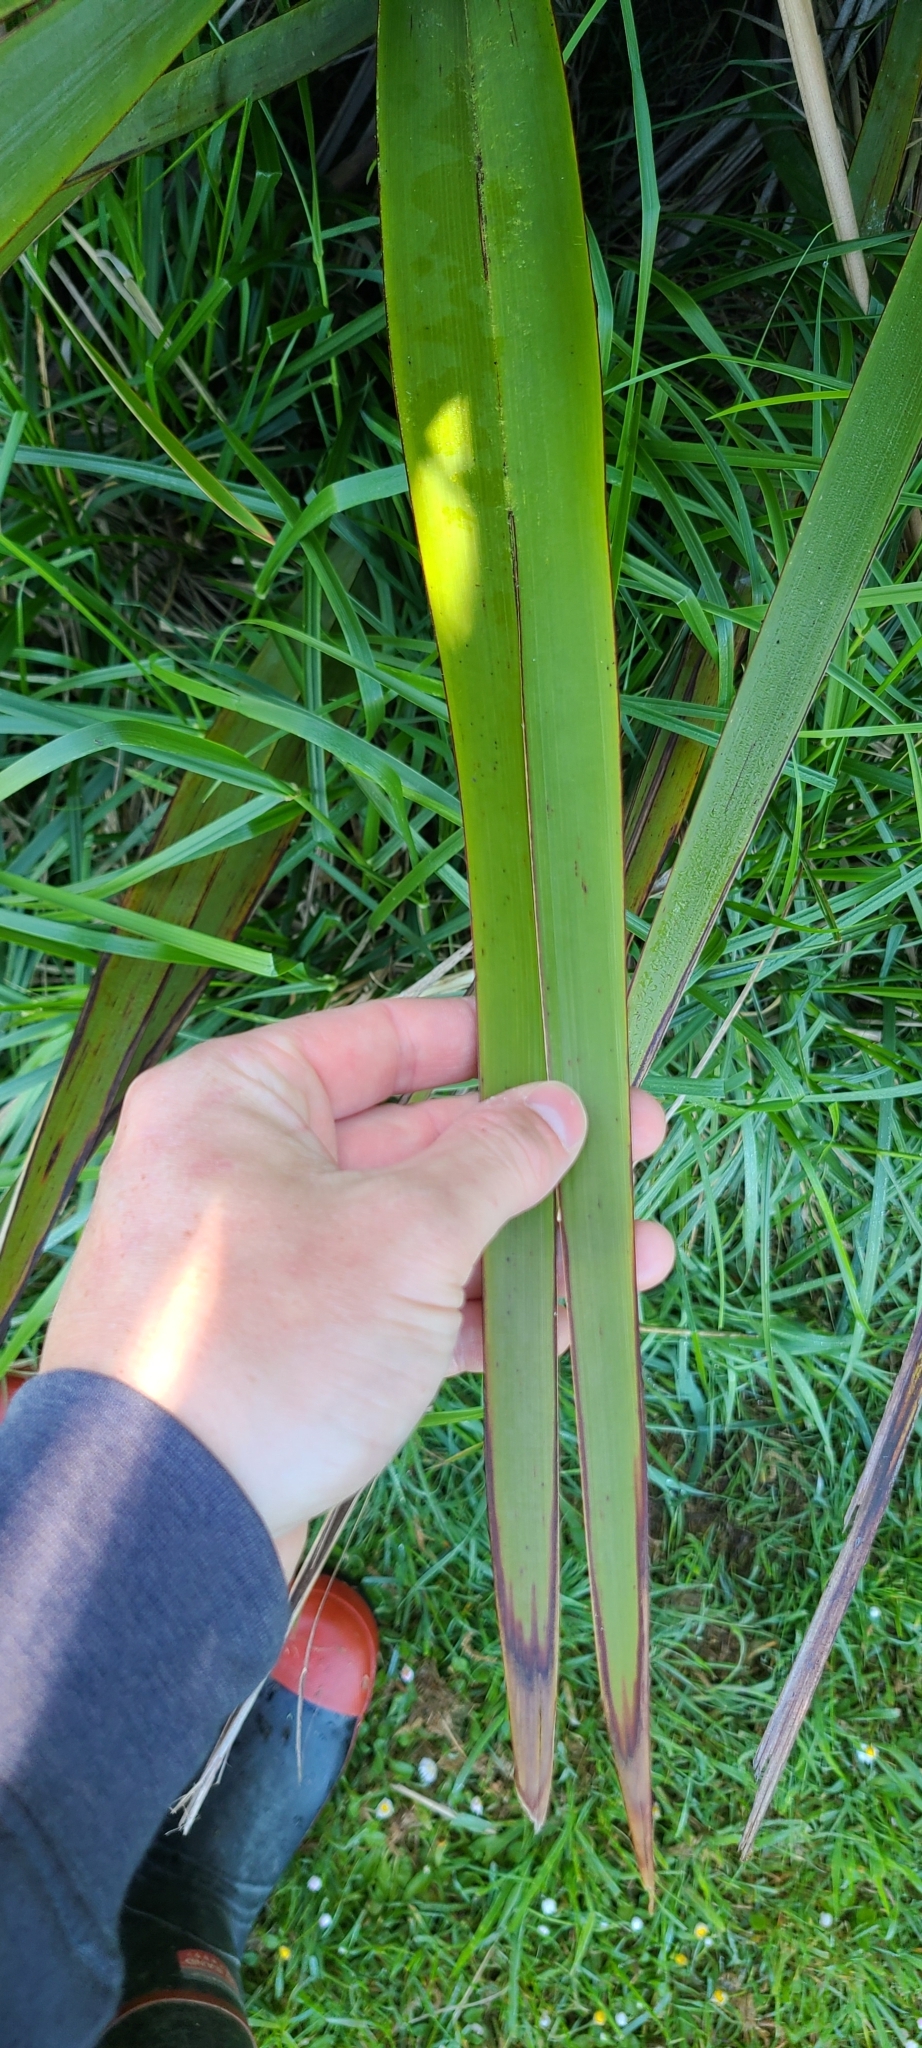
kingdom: Plantae
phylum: Tracheophyta
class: Liliopsida
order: Asparagales
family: Asphodelaceae
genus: Phormium
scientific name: Phormium tenax
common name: New zealand flax
